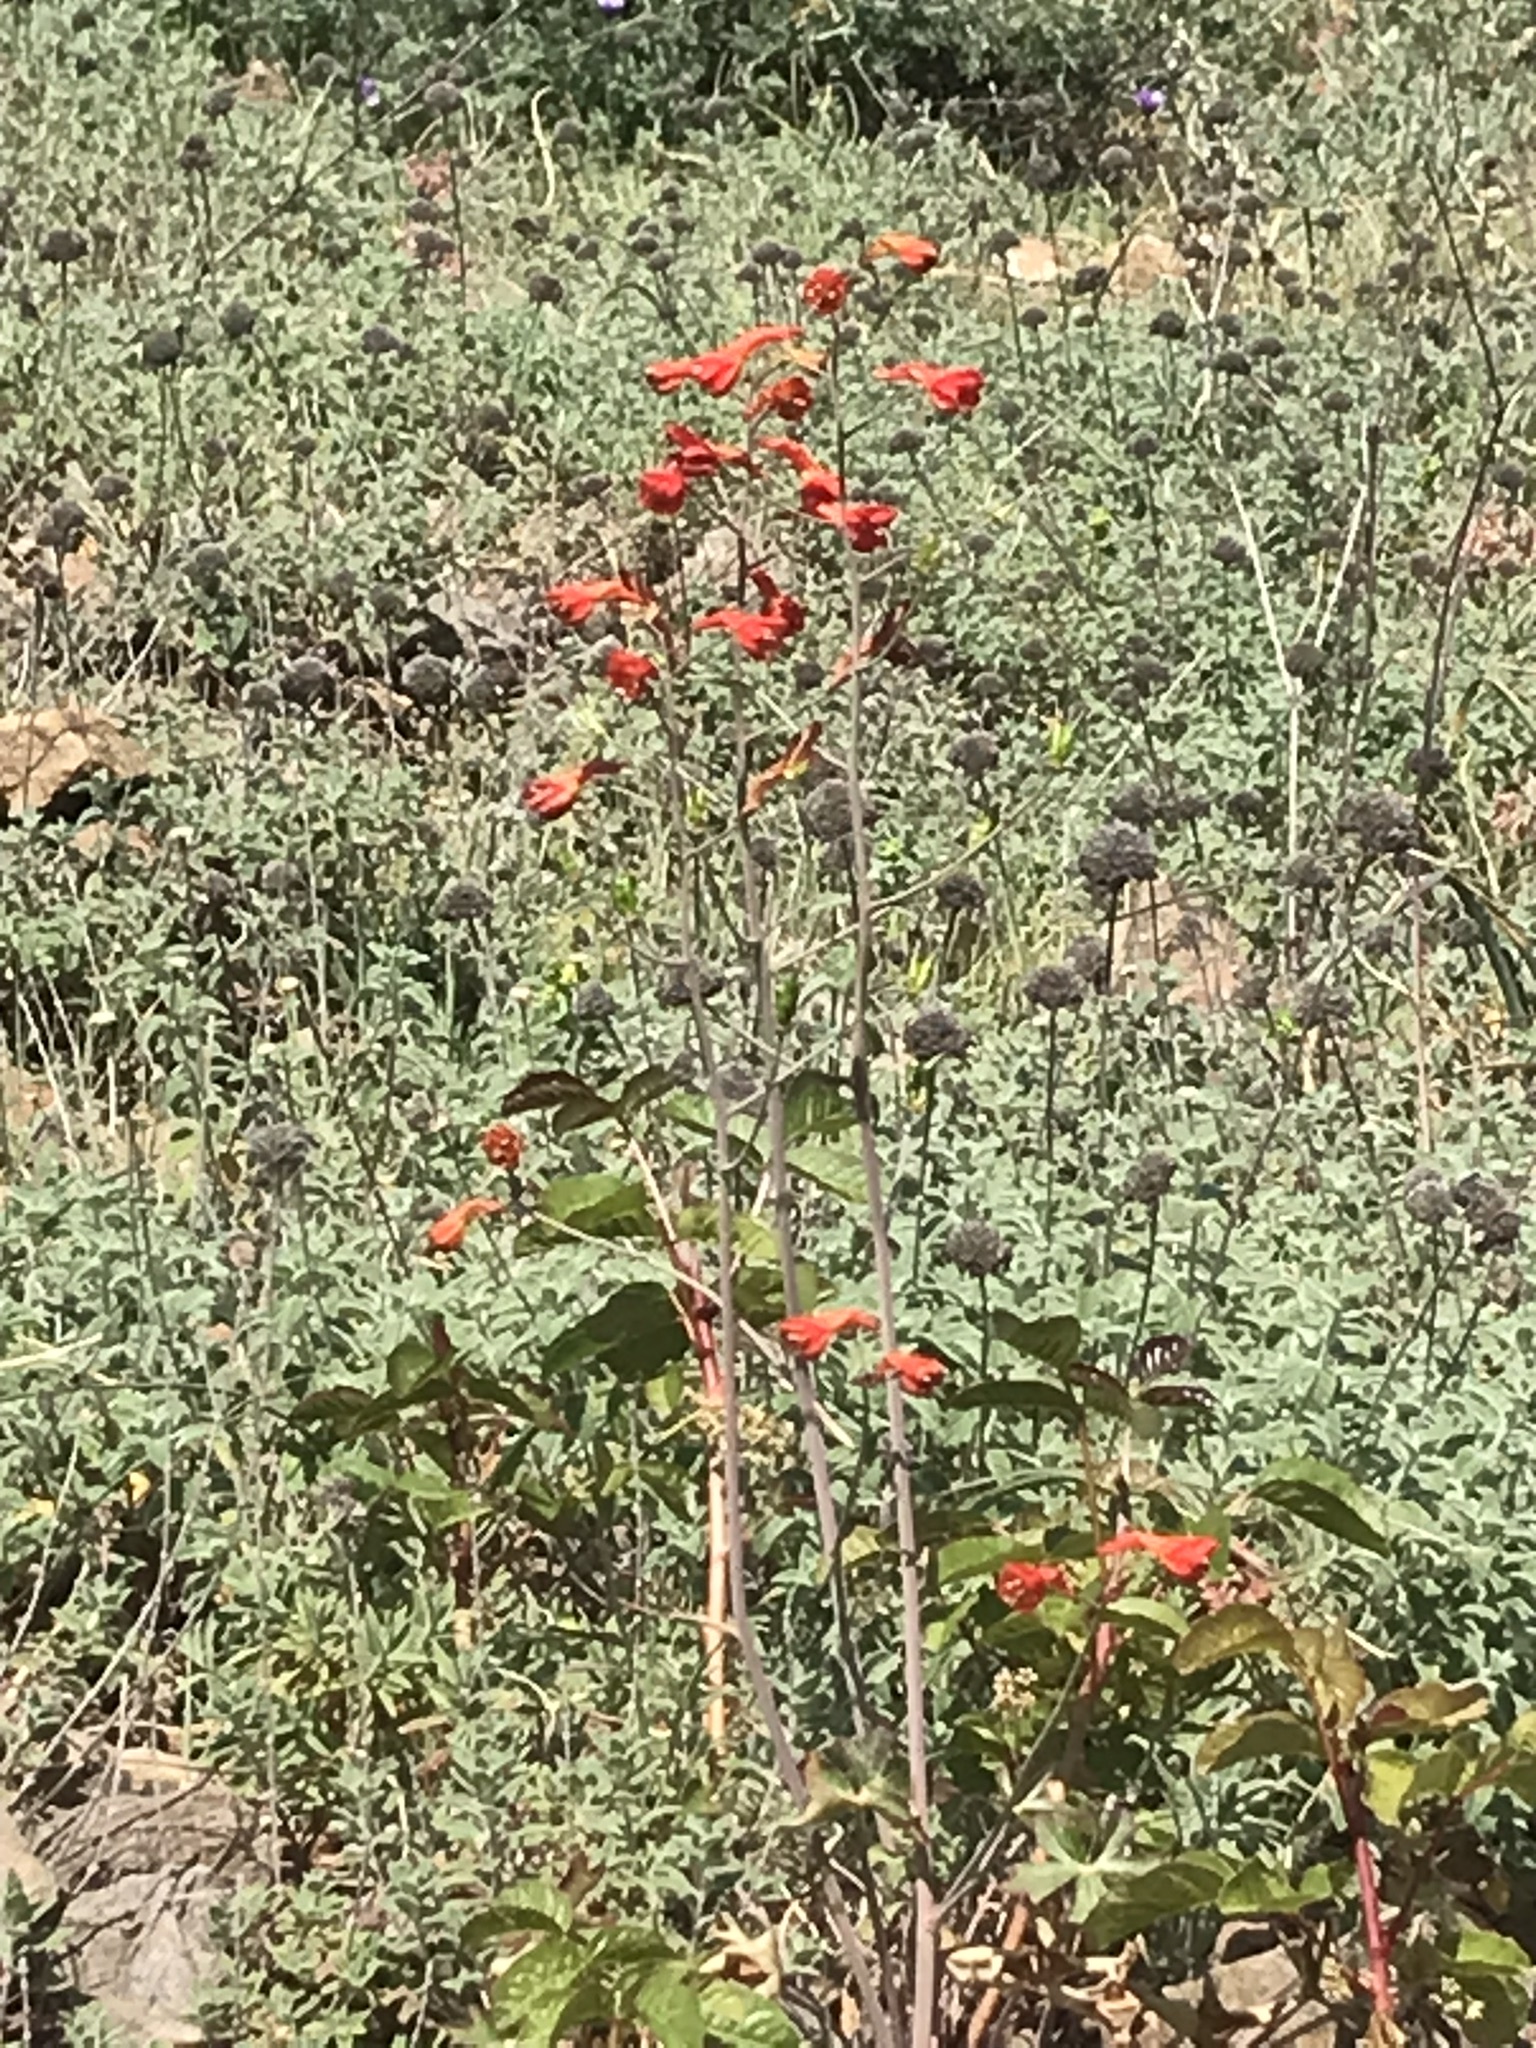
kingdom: Plantae
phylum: Tracheophyta
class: Magnoliopsida
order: Ranunculales
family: Ranunculaceae
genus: Delphinium
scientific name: Delphinium nudicaule
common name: Red larkspur
